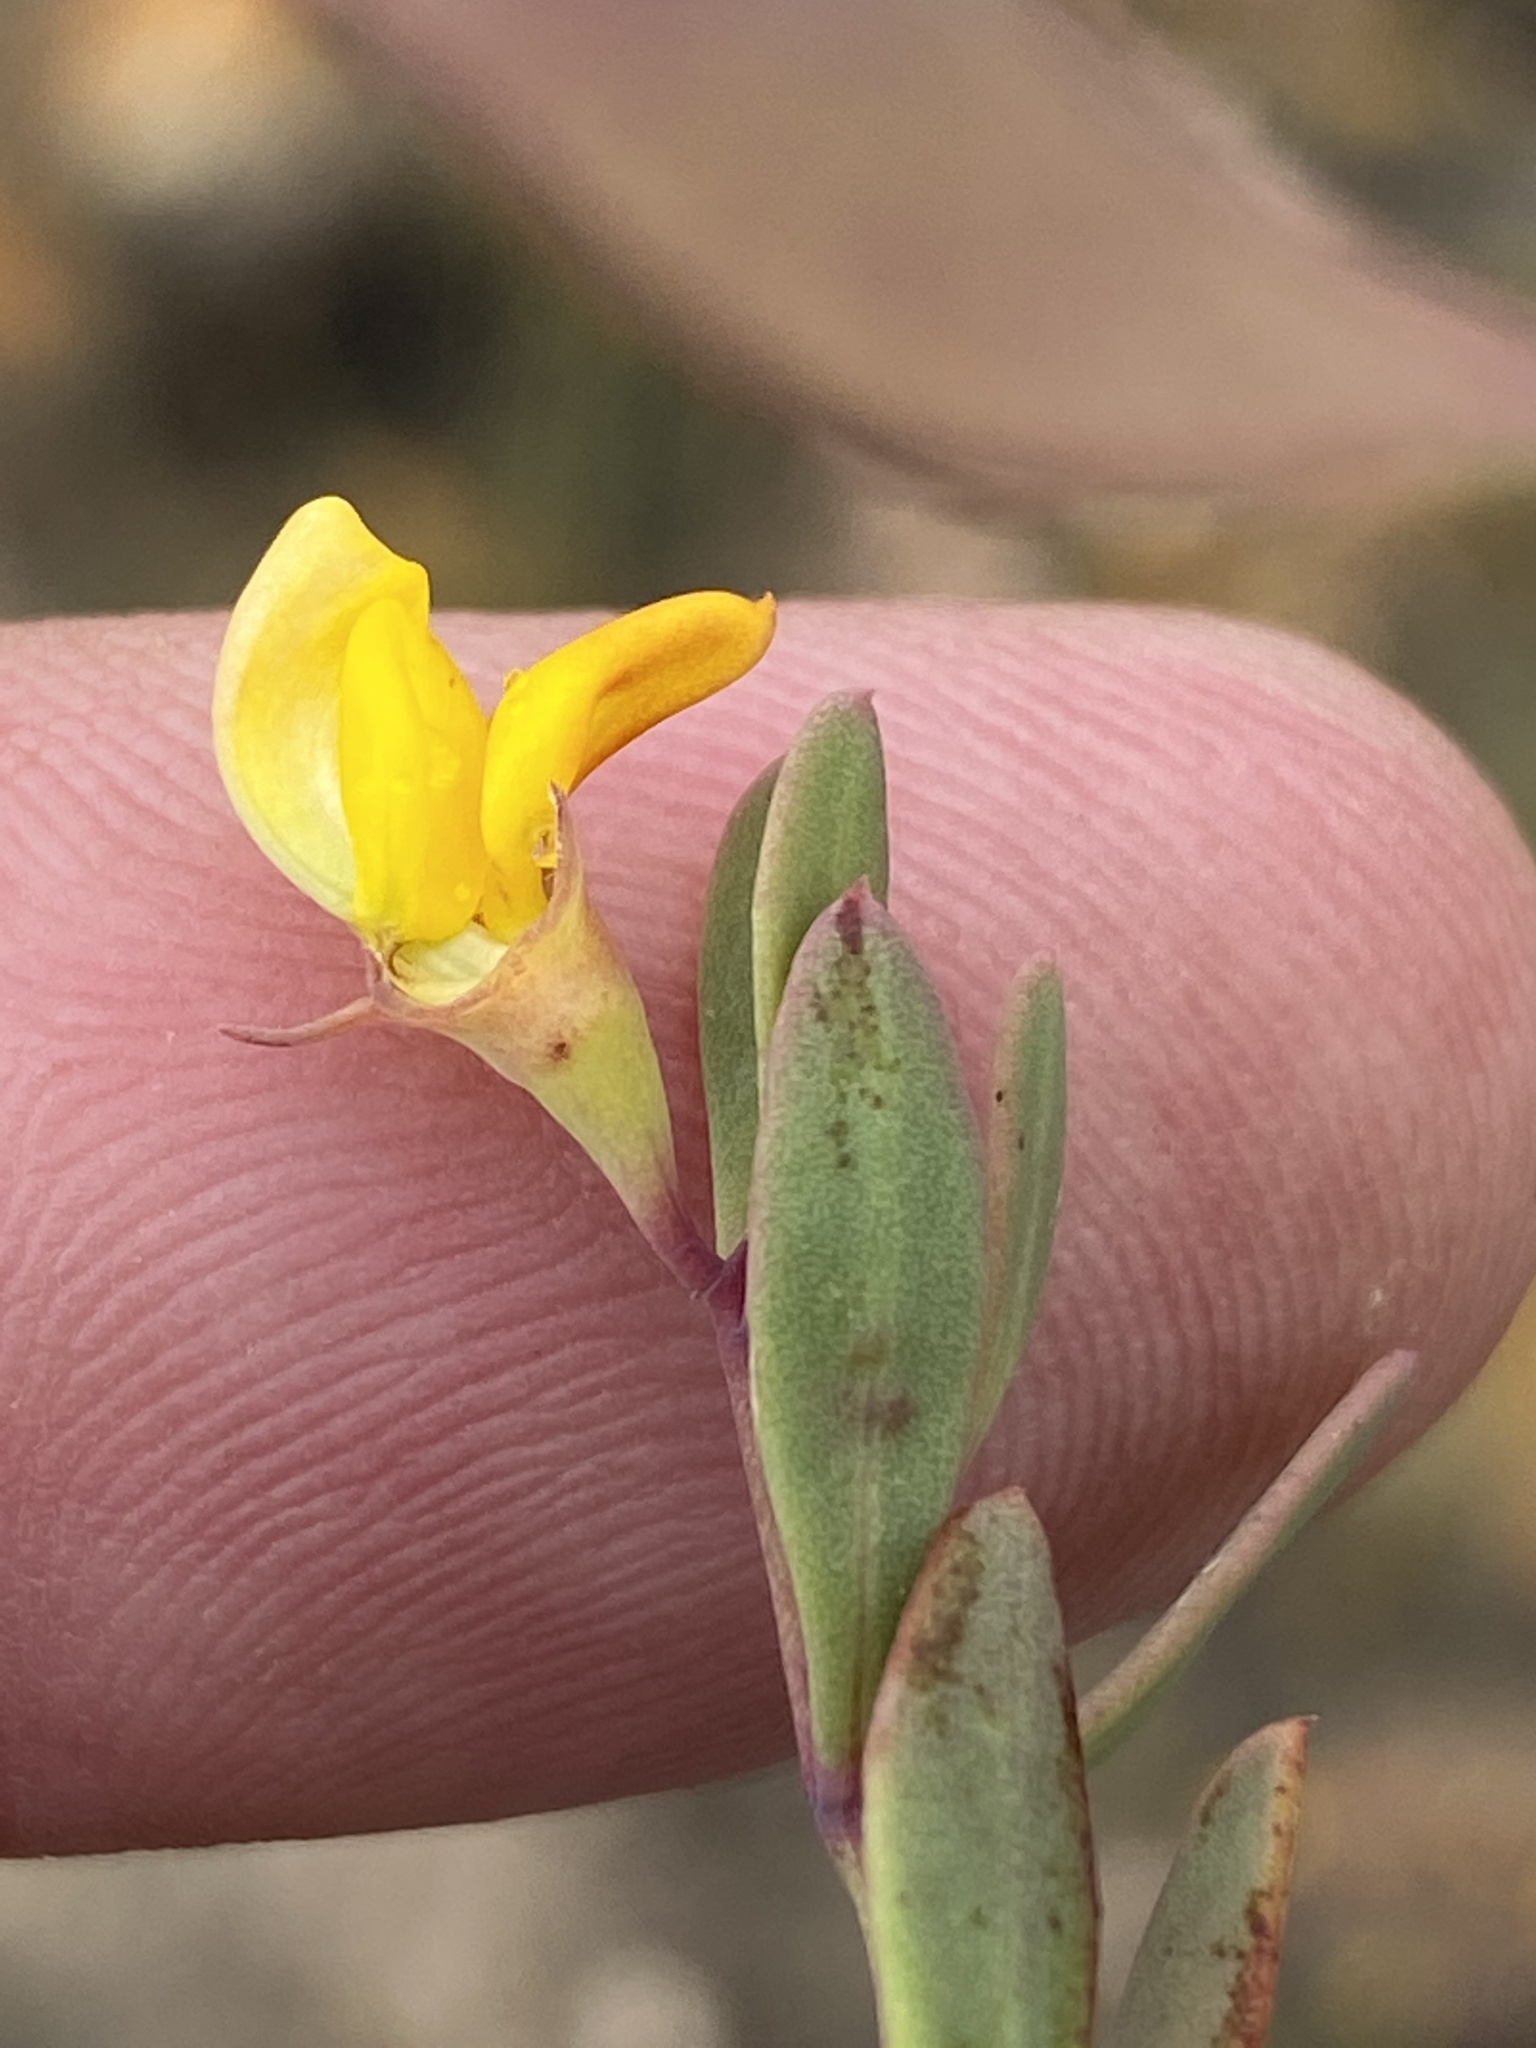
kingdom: Plantae
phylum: Tracheophyta
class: Magnoliopsida
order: Fabales
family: Fabaceae
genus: Rafnia
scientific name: Rafnia capensis
